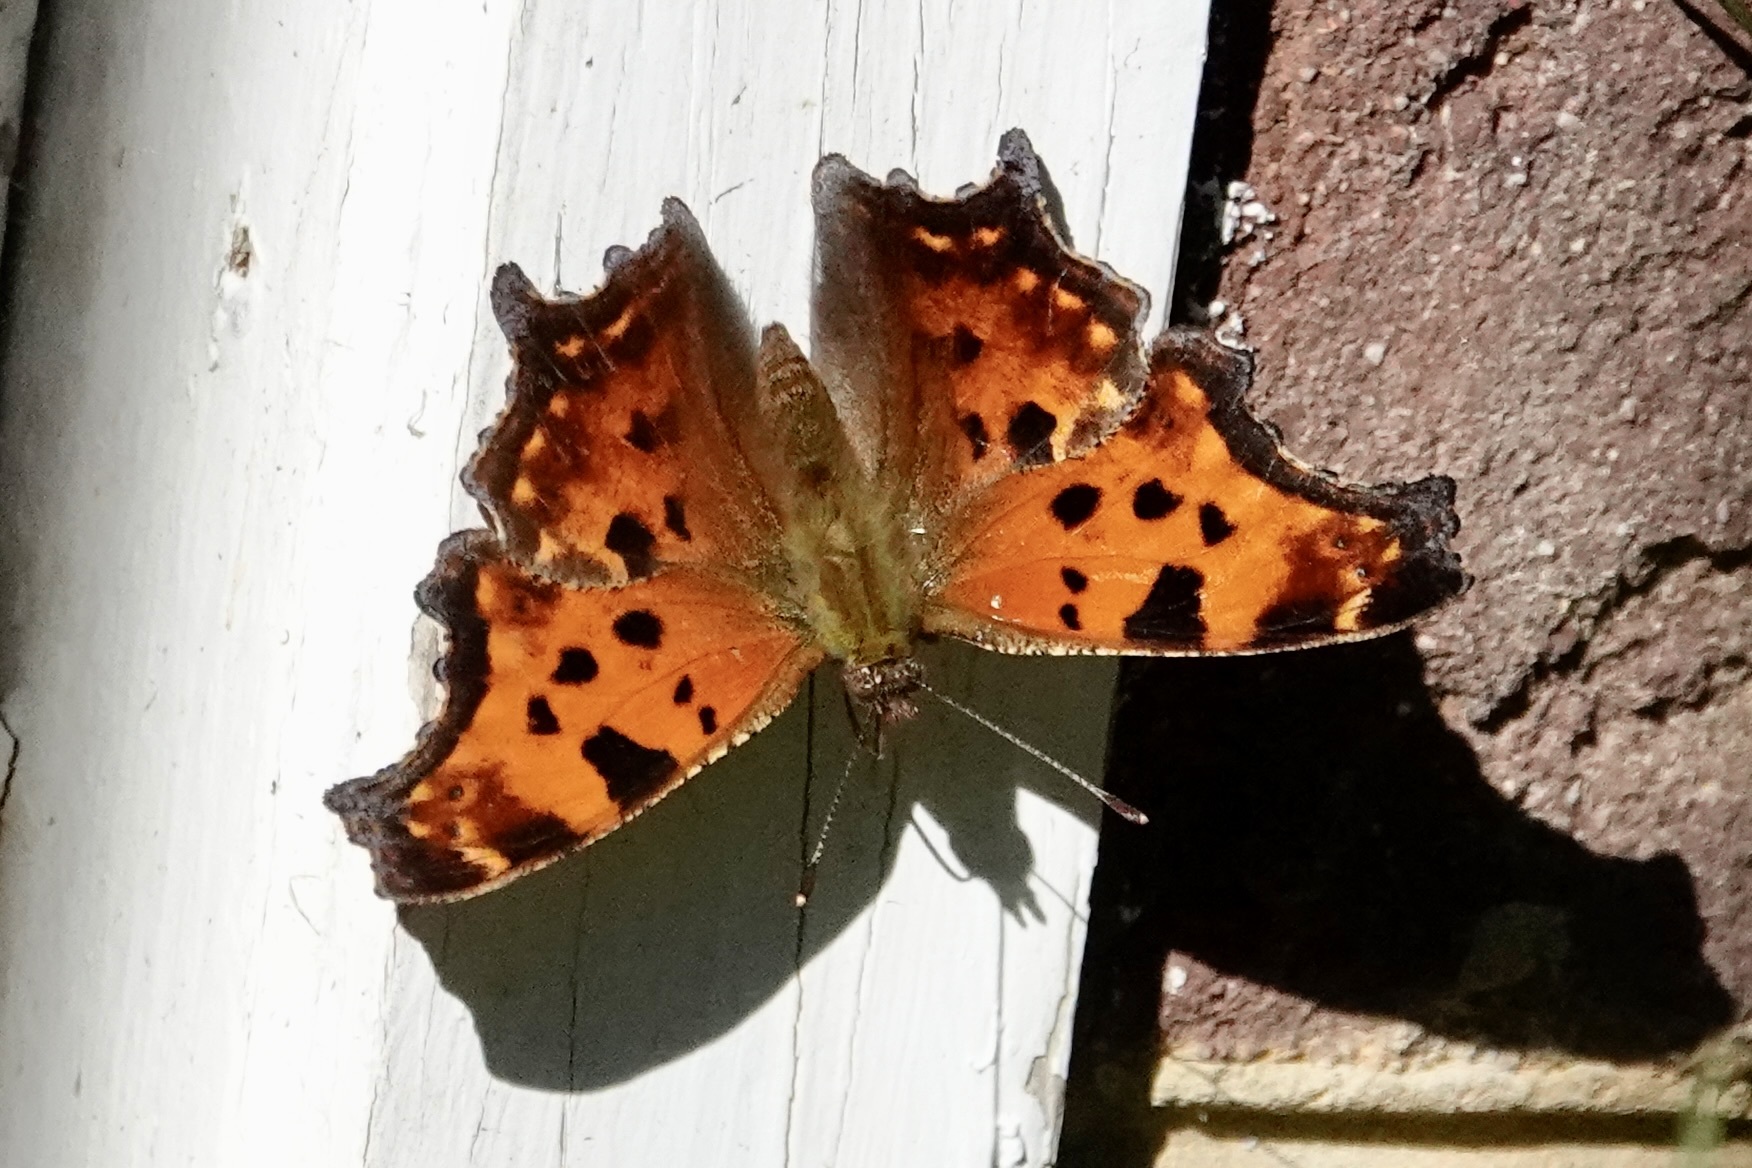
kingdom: Animalia
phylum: Arthropoda
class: Insecta
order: Lepidoptera
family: Nymphalidae
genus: Polygonia
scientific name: Polygonia comma
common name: Eastern comma
